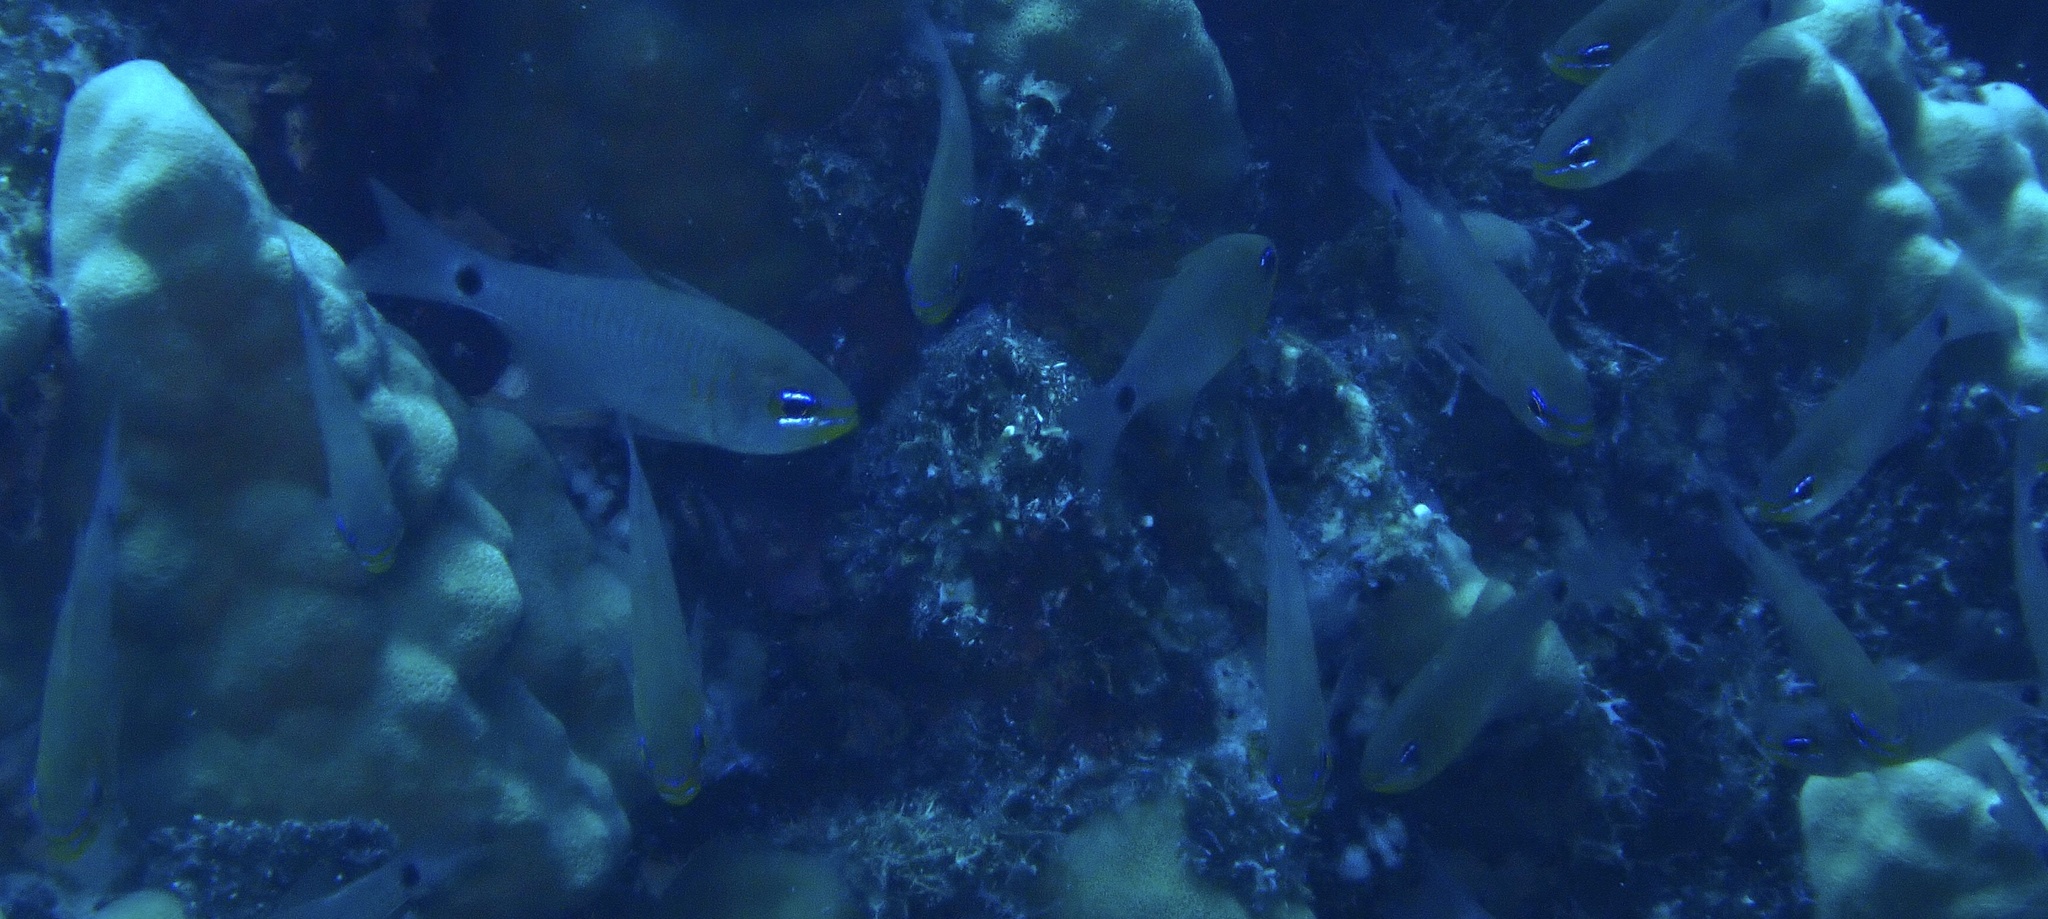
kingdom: Animalia
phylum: Chordata
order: Perciformes
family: Apogonidae
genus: Taeniamia
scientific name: Taeniamia fucata
